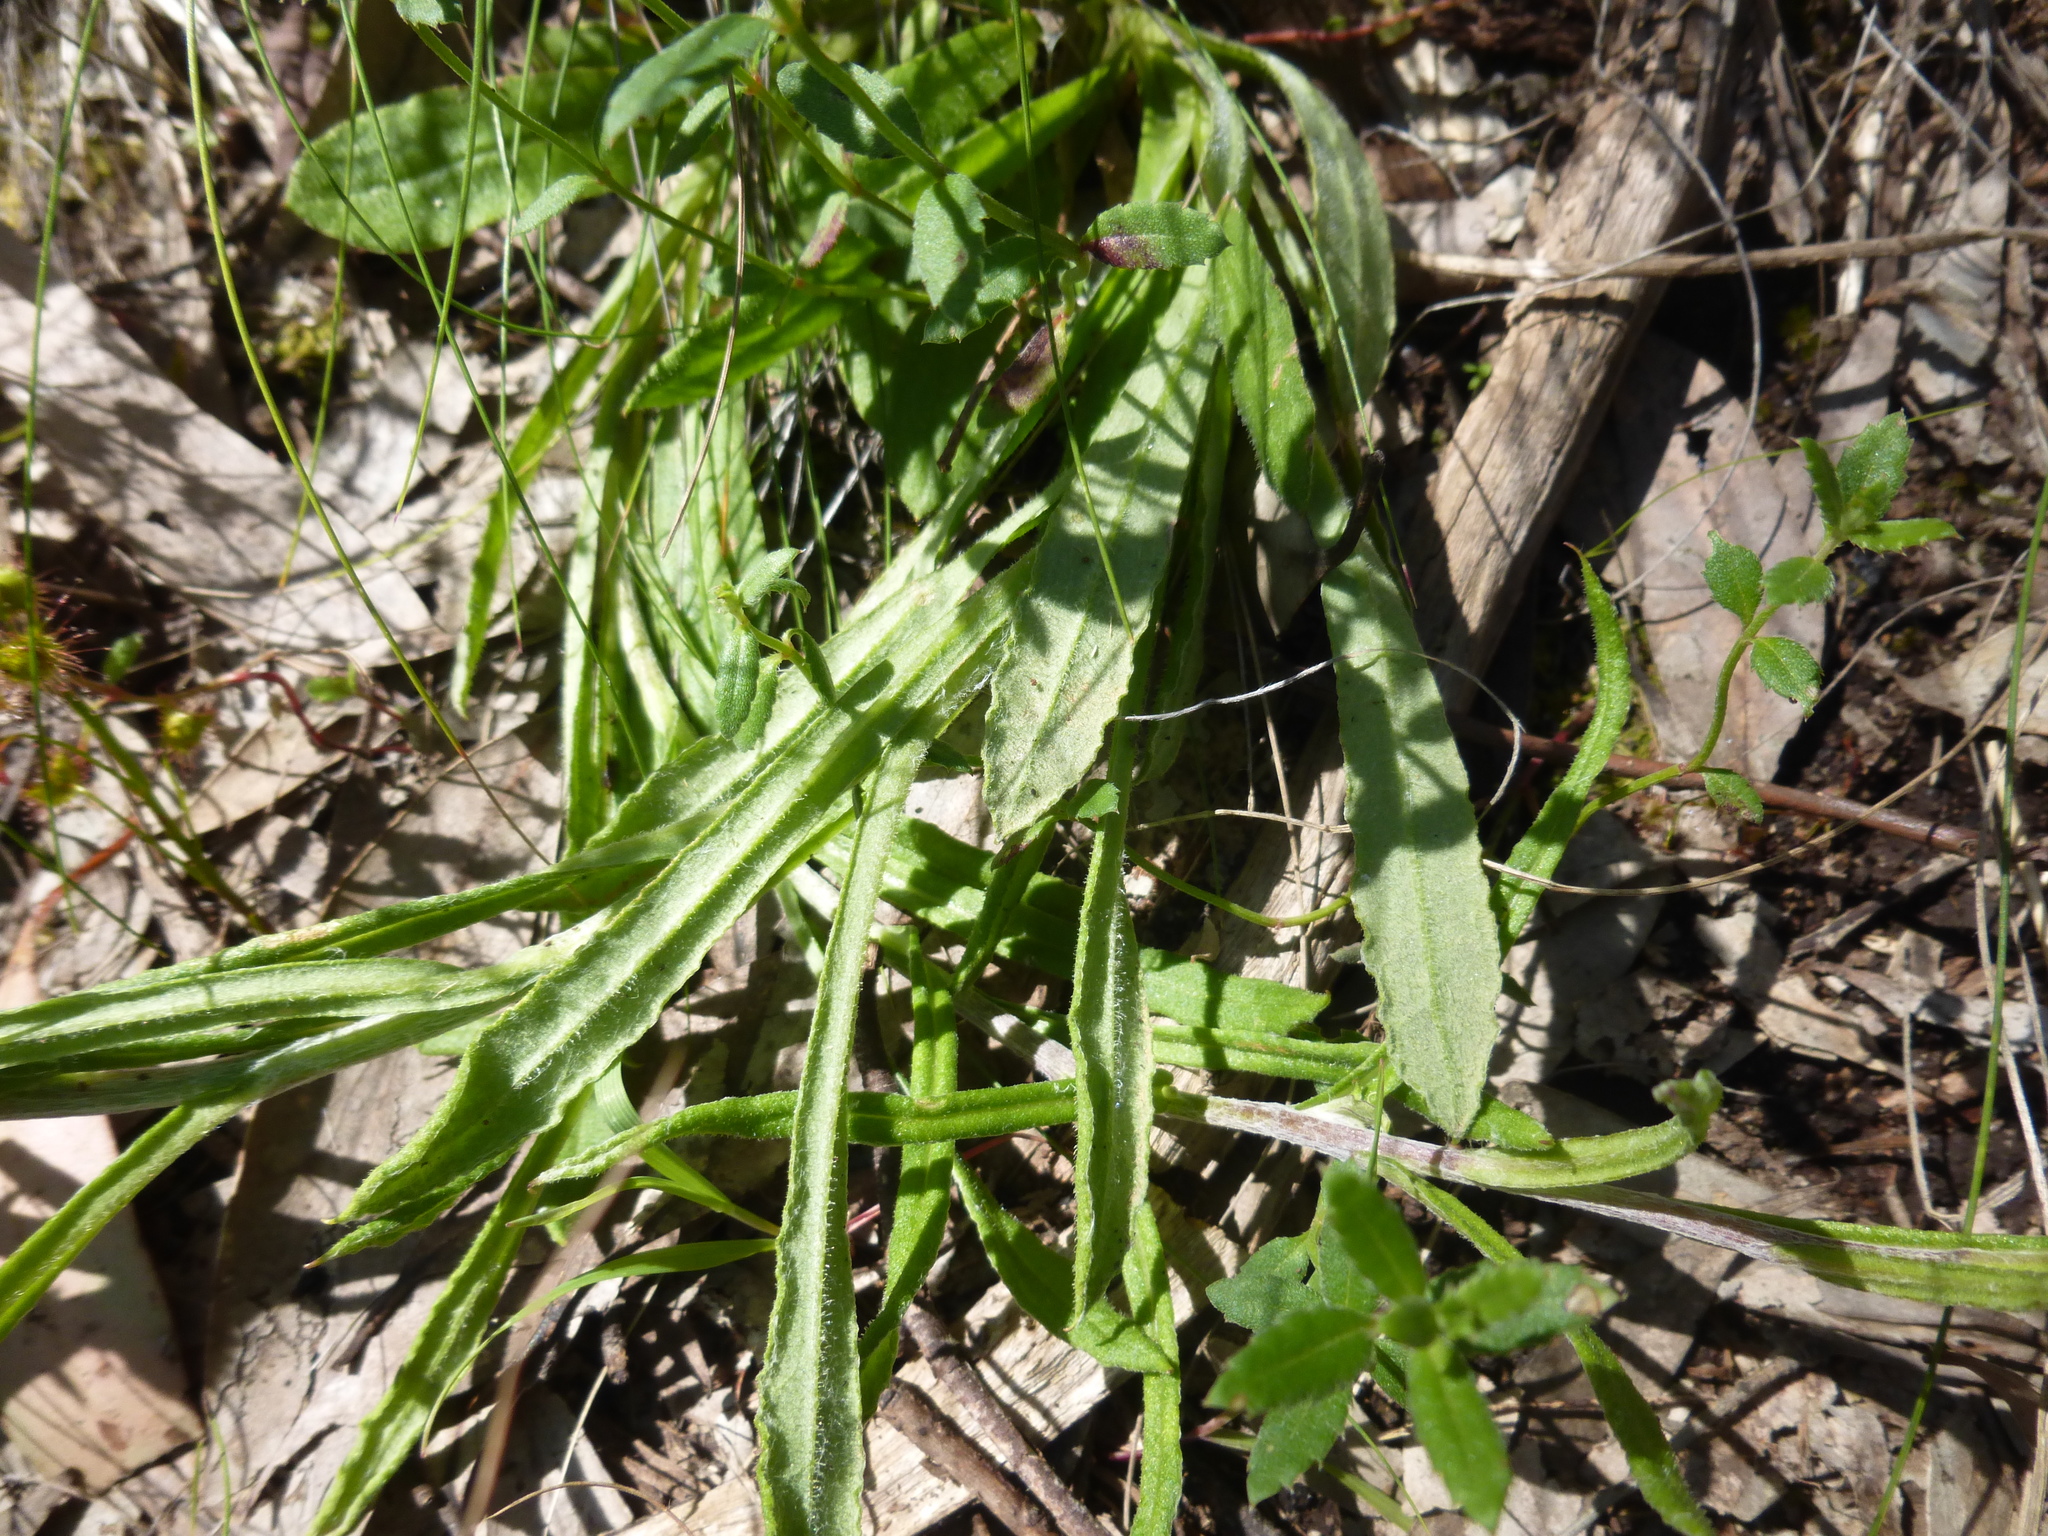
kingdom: Plantae
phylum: Tracheophyta
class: Magnoliopsida
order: Asterales
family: Asteraceae
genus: Coronidium
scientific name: Coronidium scorpioides
